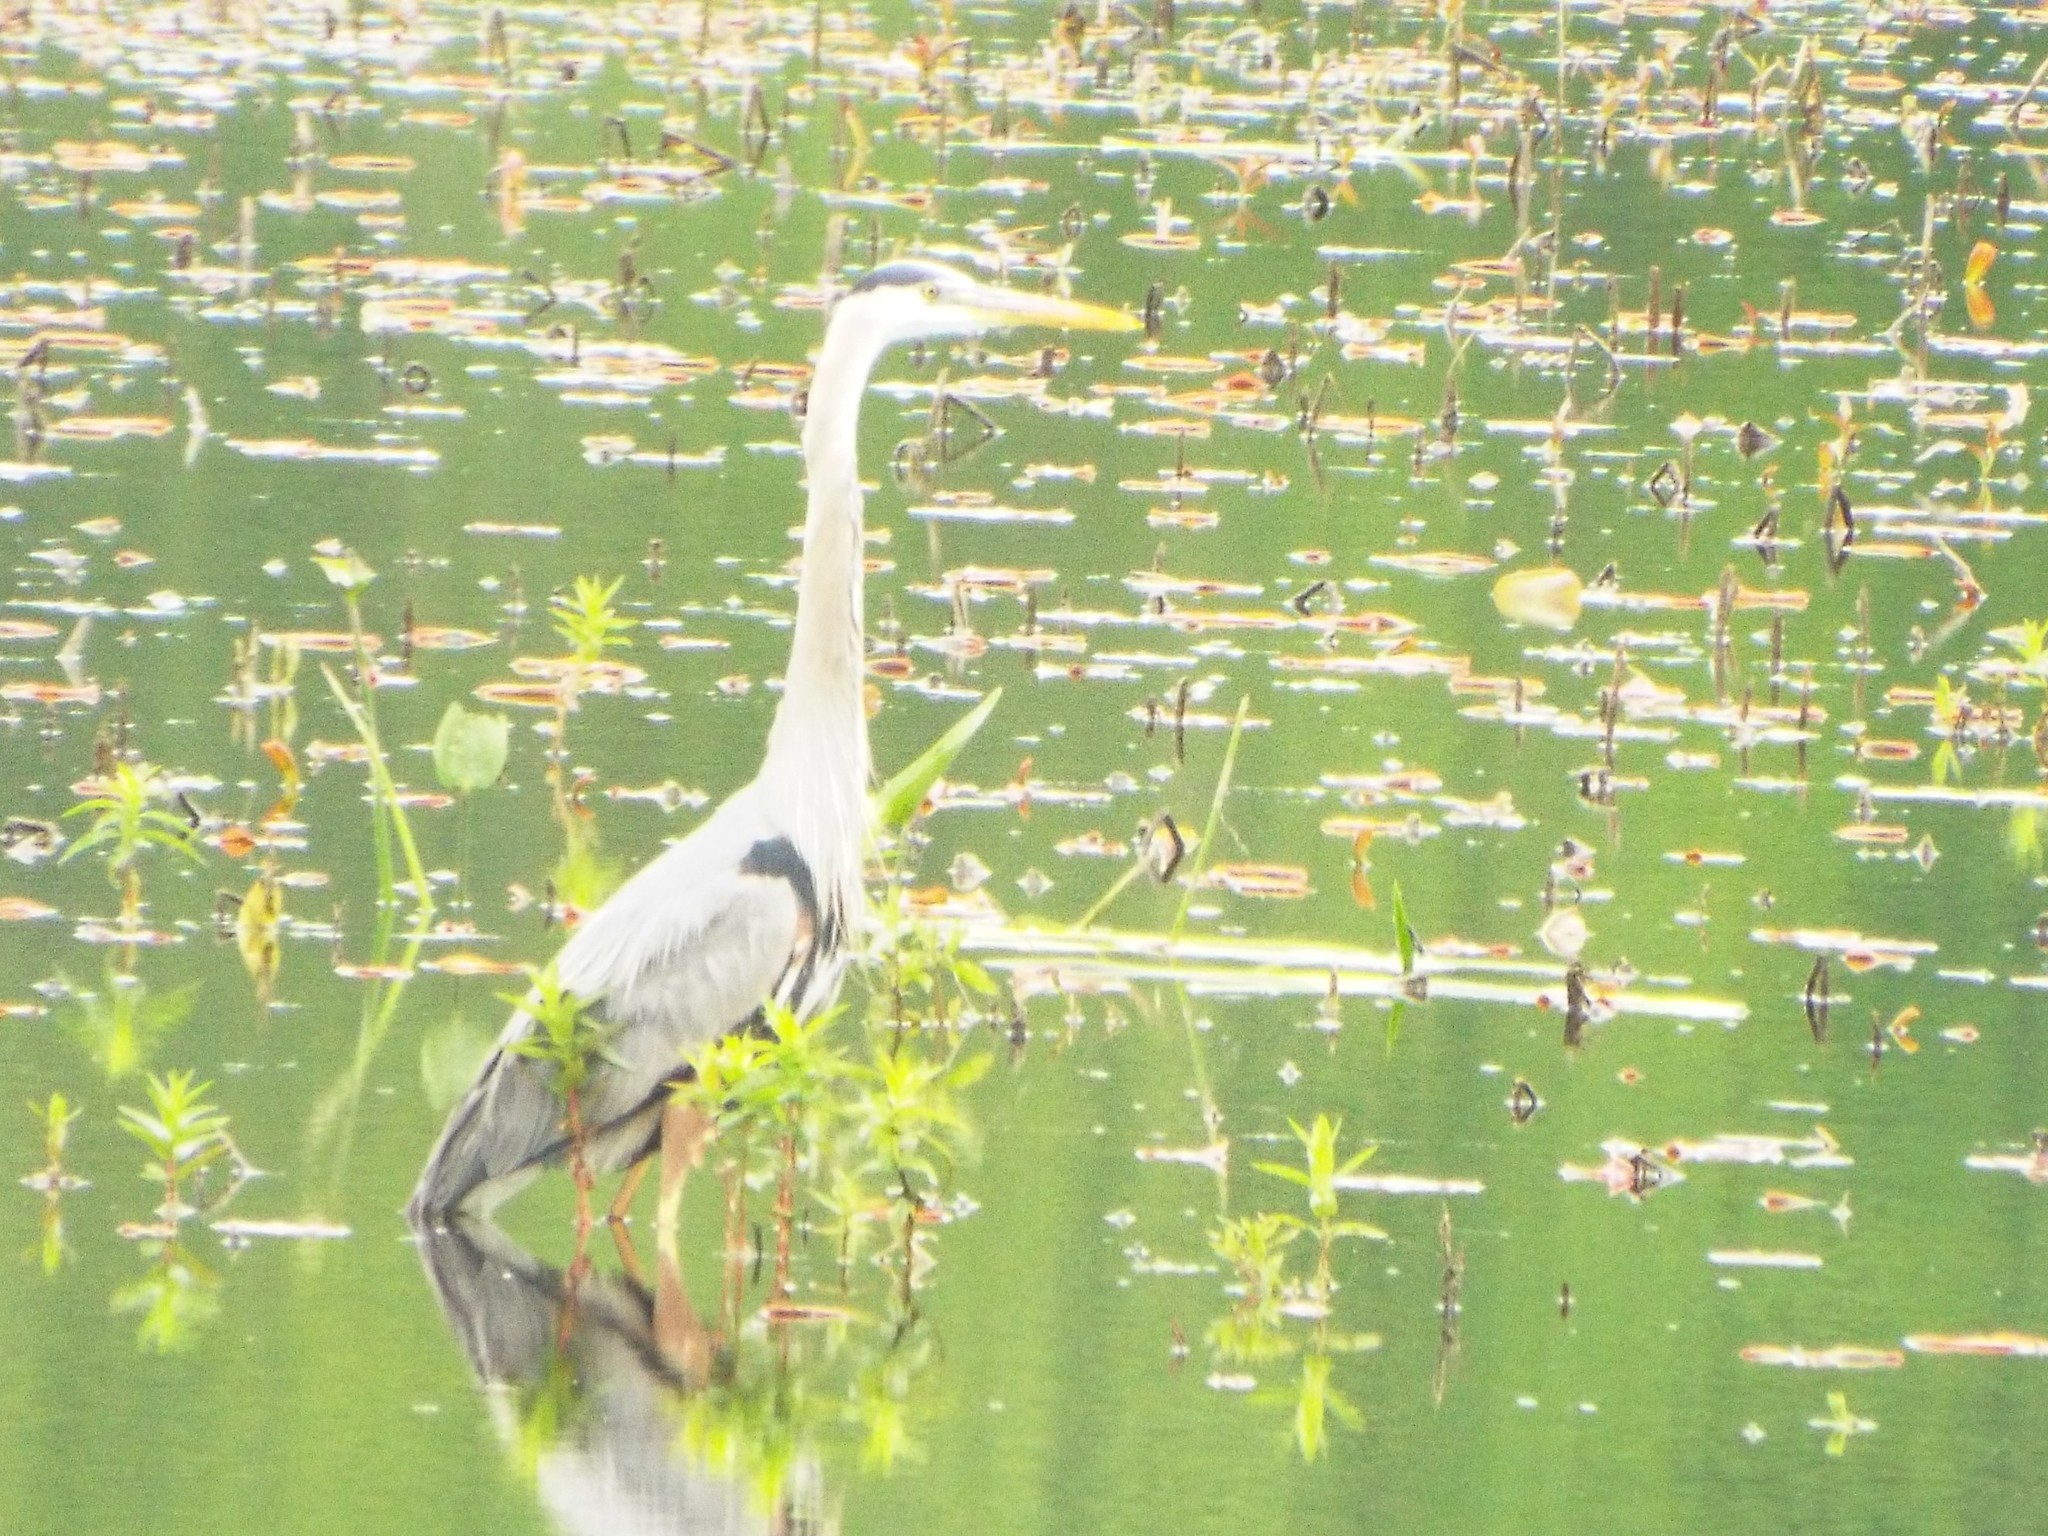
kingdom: Animalia
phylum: Chordata
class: Aves
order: Pelecaniformes
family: Ardeidae
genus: Ardea
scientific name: Ardea herodias
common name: Great blue heron
